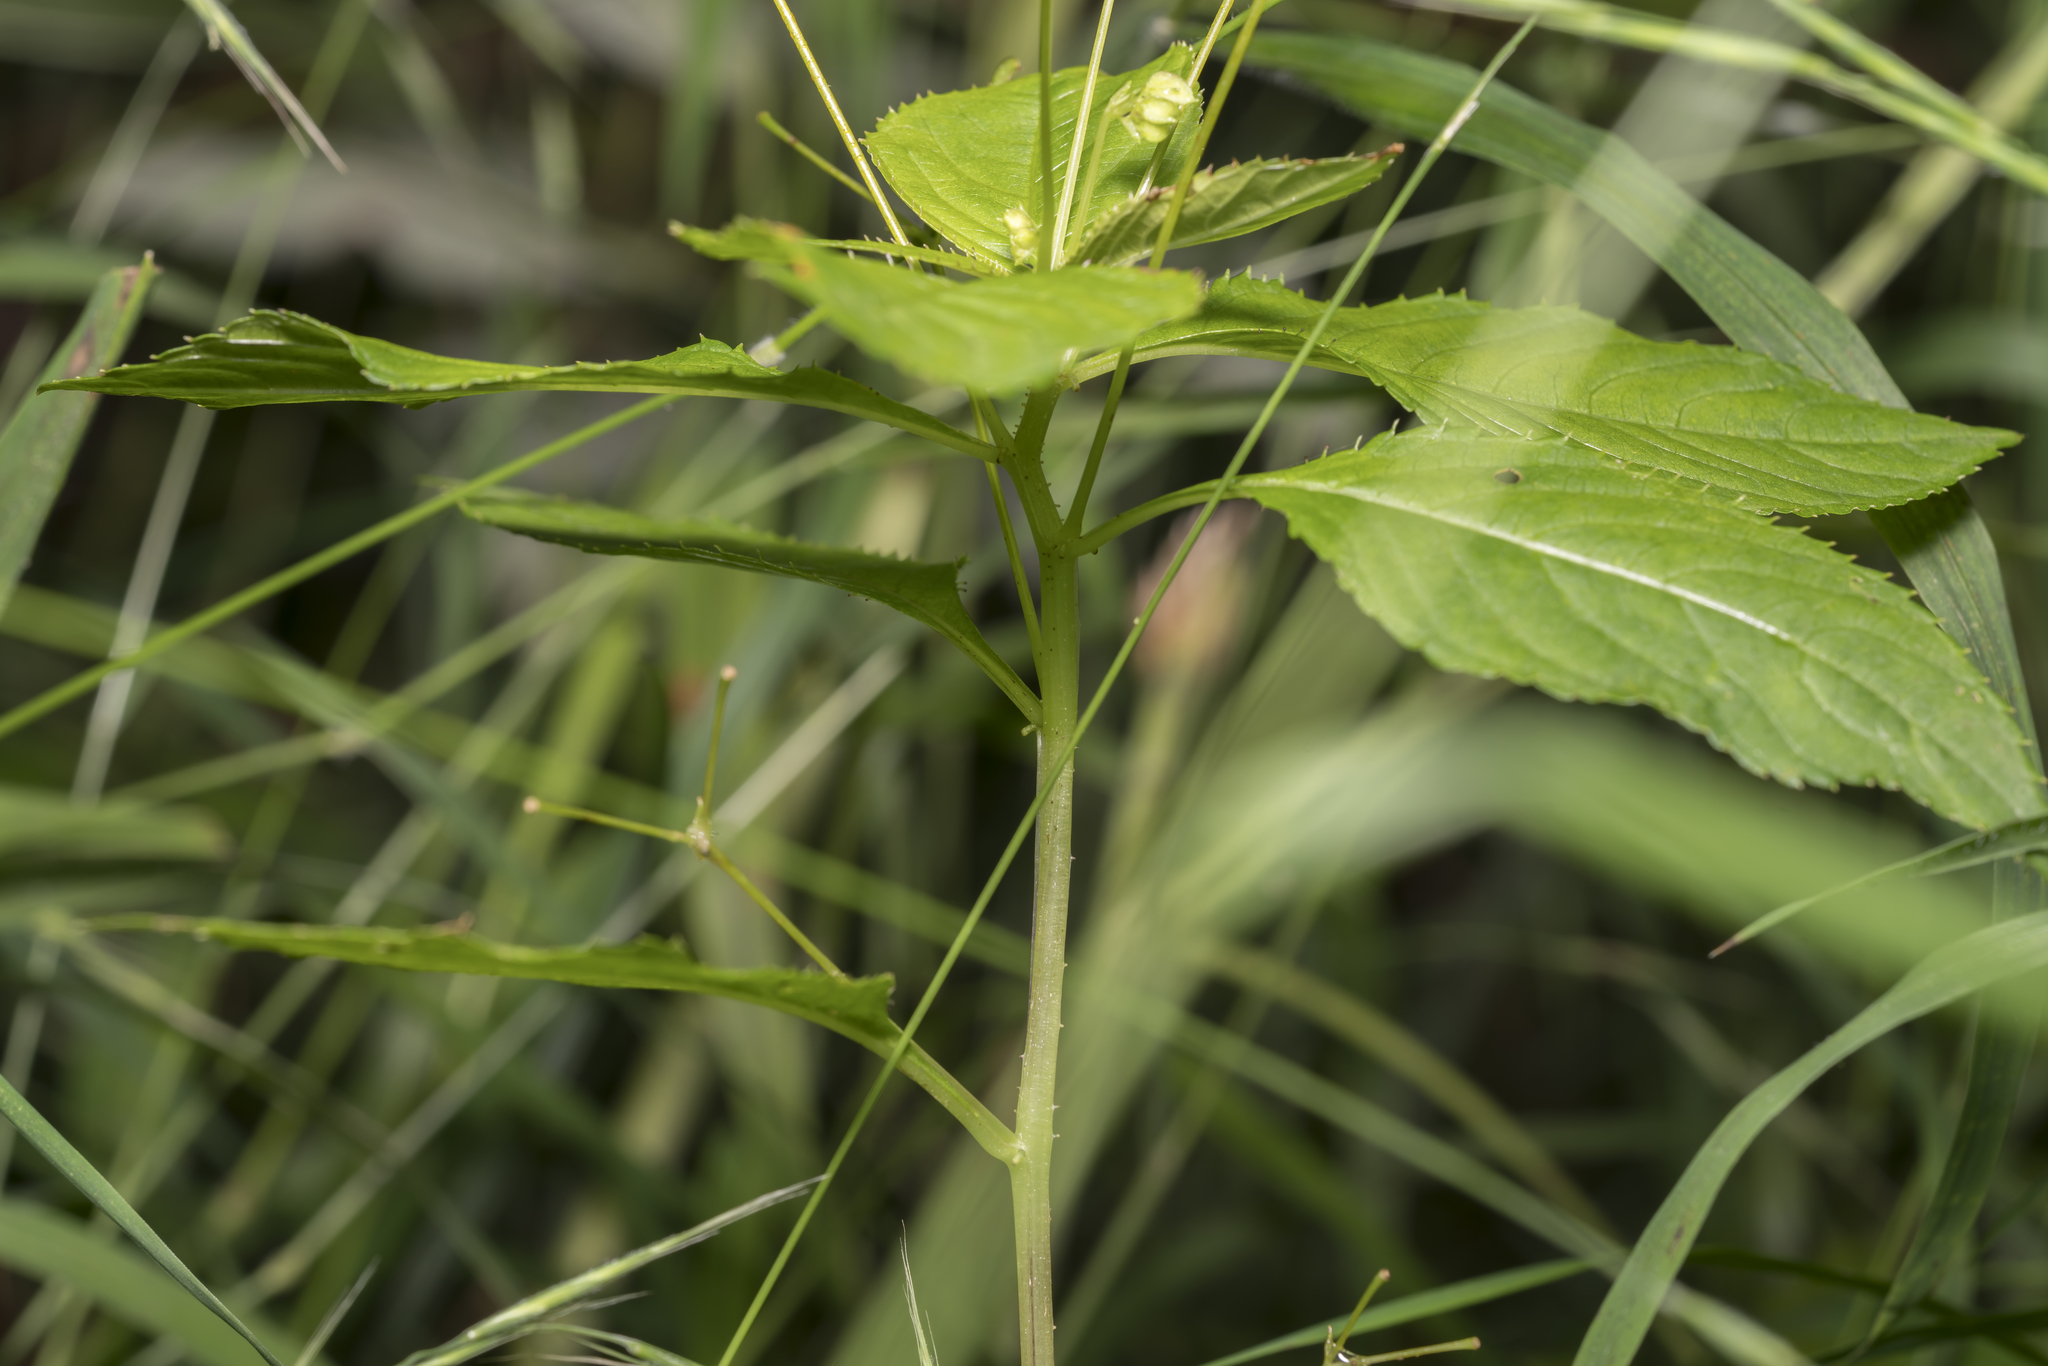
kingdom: Plantae
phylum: Tracheophyta
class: Magnoliopsida
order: Ericales
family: Balsaminaceae
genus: Impatiens
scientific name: Impatiens parviflora
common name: Small balsam
